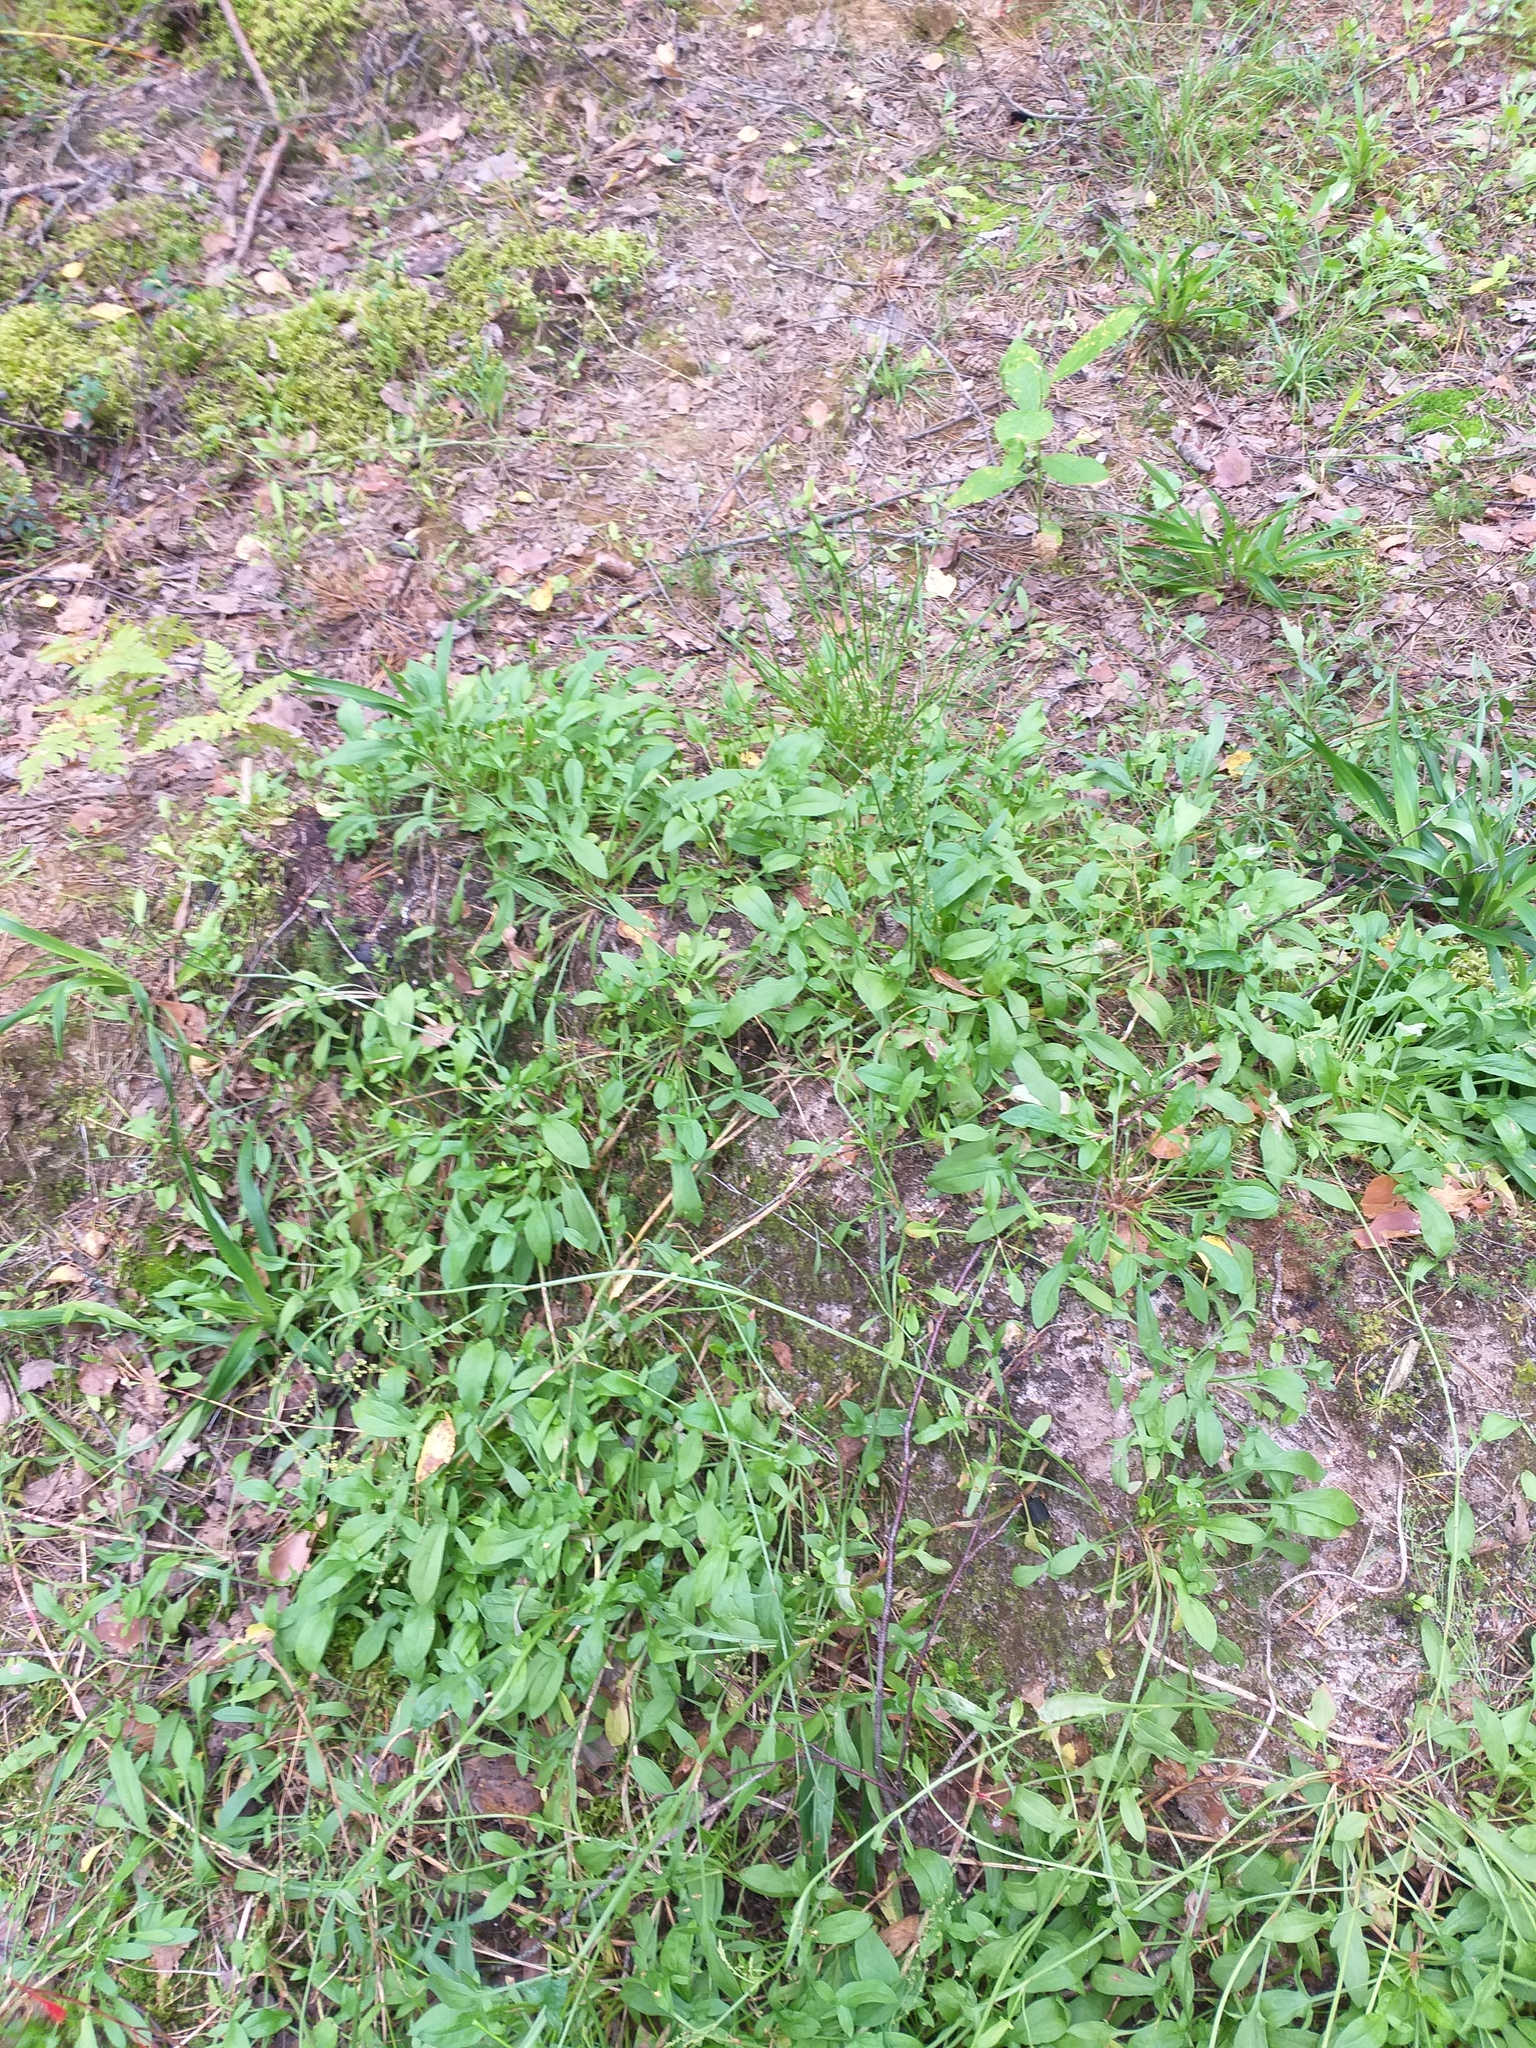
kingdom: Plantae
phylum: Tracheophyta
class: Magnoliopsida
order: Caryophyllales
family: Polygonaceae
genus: Rumex
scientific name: Rumex acetosella
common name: Common sheep sorrel
